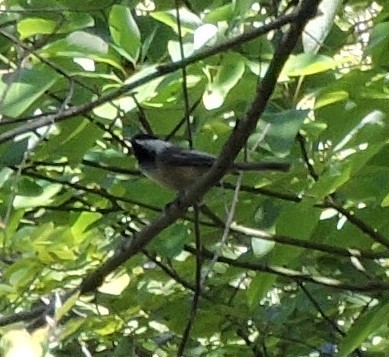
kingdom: Animalia
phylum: Chordata
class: Aves
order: Passeriformes
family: Paridae
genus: Poecile
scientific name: Poecile atricapillus
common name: Black-capped chickadee
